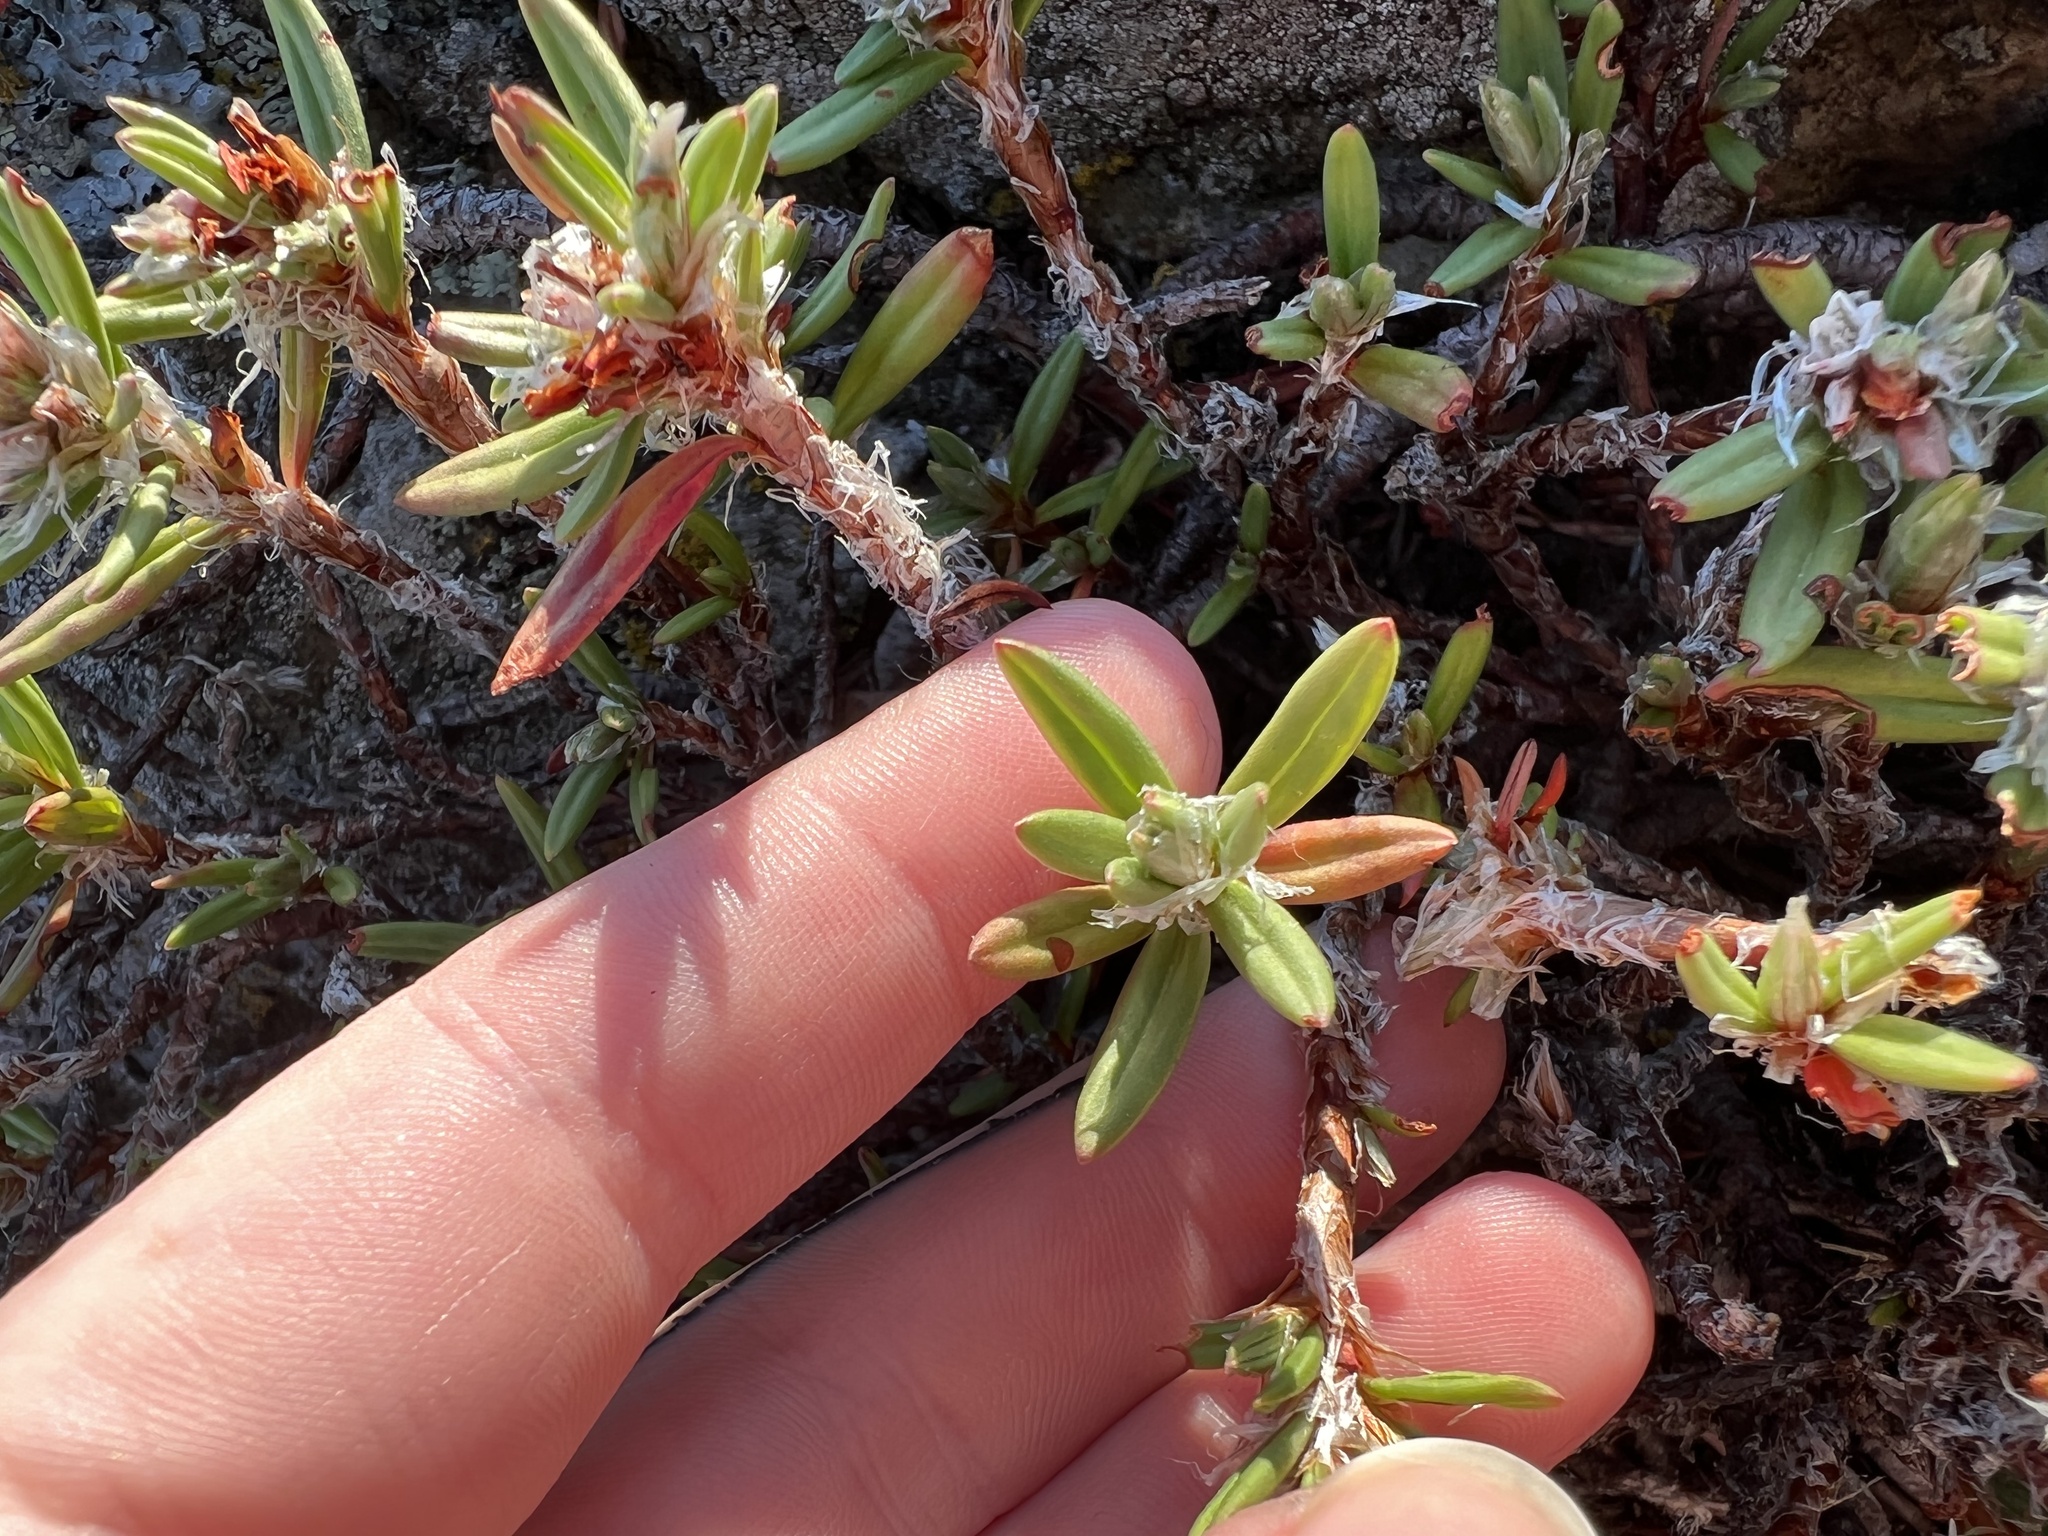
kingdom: Plantae
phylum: Tracheophyta
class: Magnoliopsida
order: Caryophyllales
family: Polygonaceae
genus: Polygonum
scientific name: Polygonum paronychia
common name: Dune knotweed
